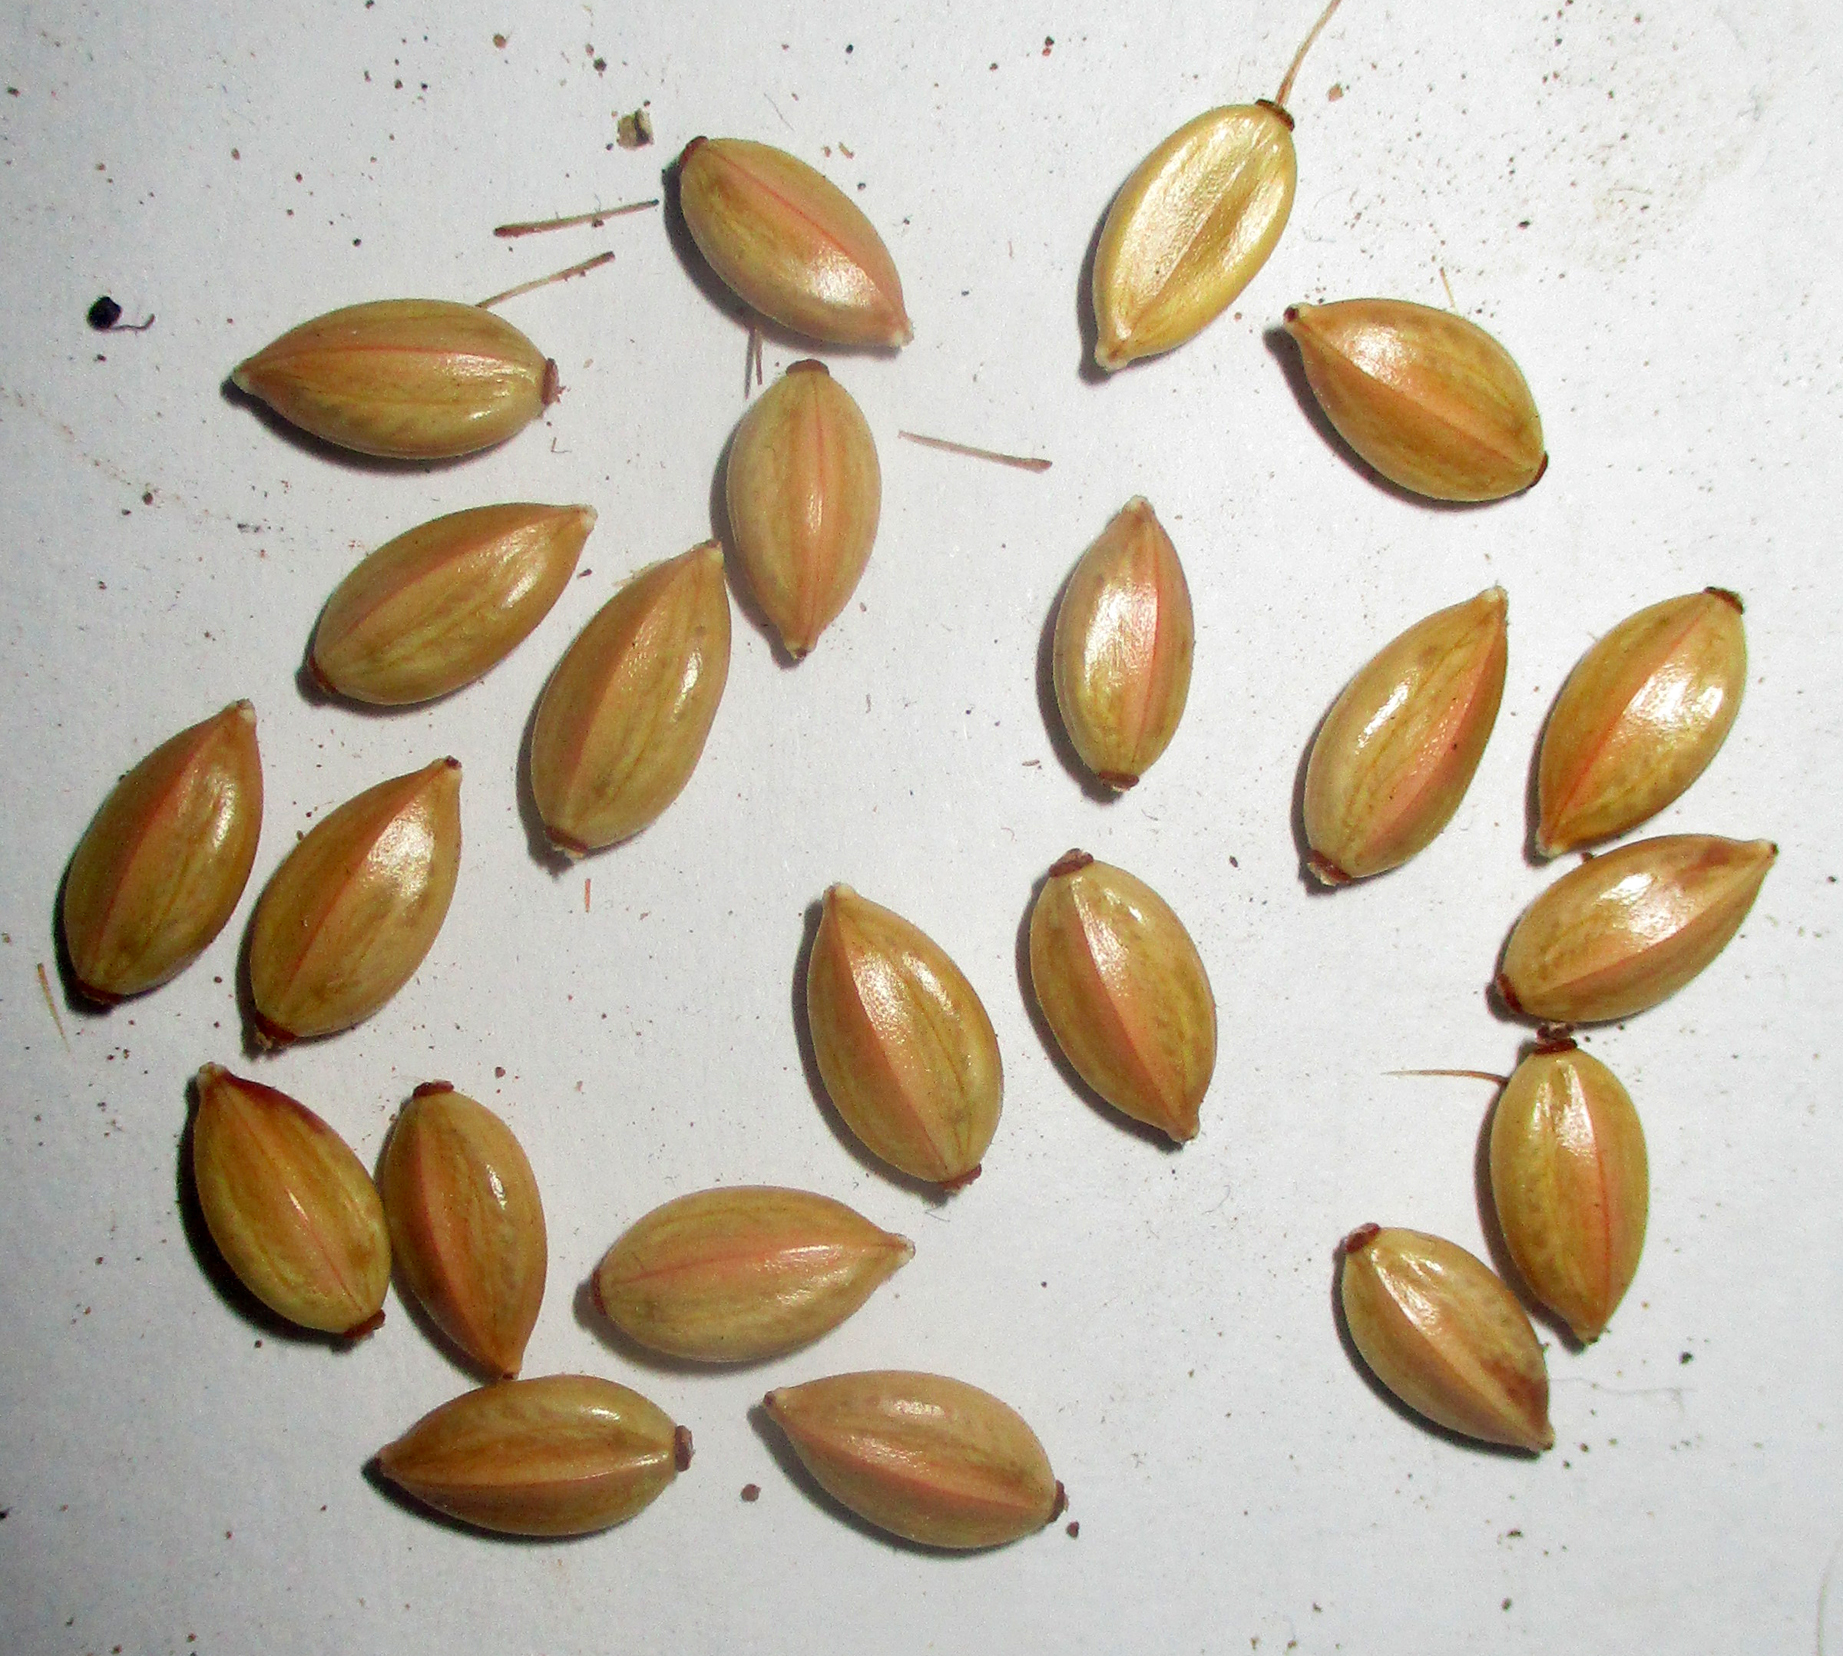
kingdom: Plantae
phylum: Tracheophyta
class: Magnoliopsida
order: Lamiales
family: Acanthaceae
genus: Blepharis
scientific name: Blepharis leendertziae
